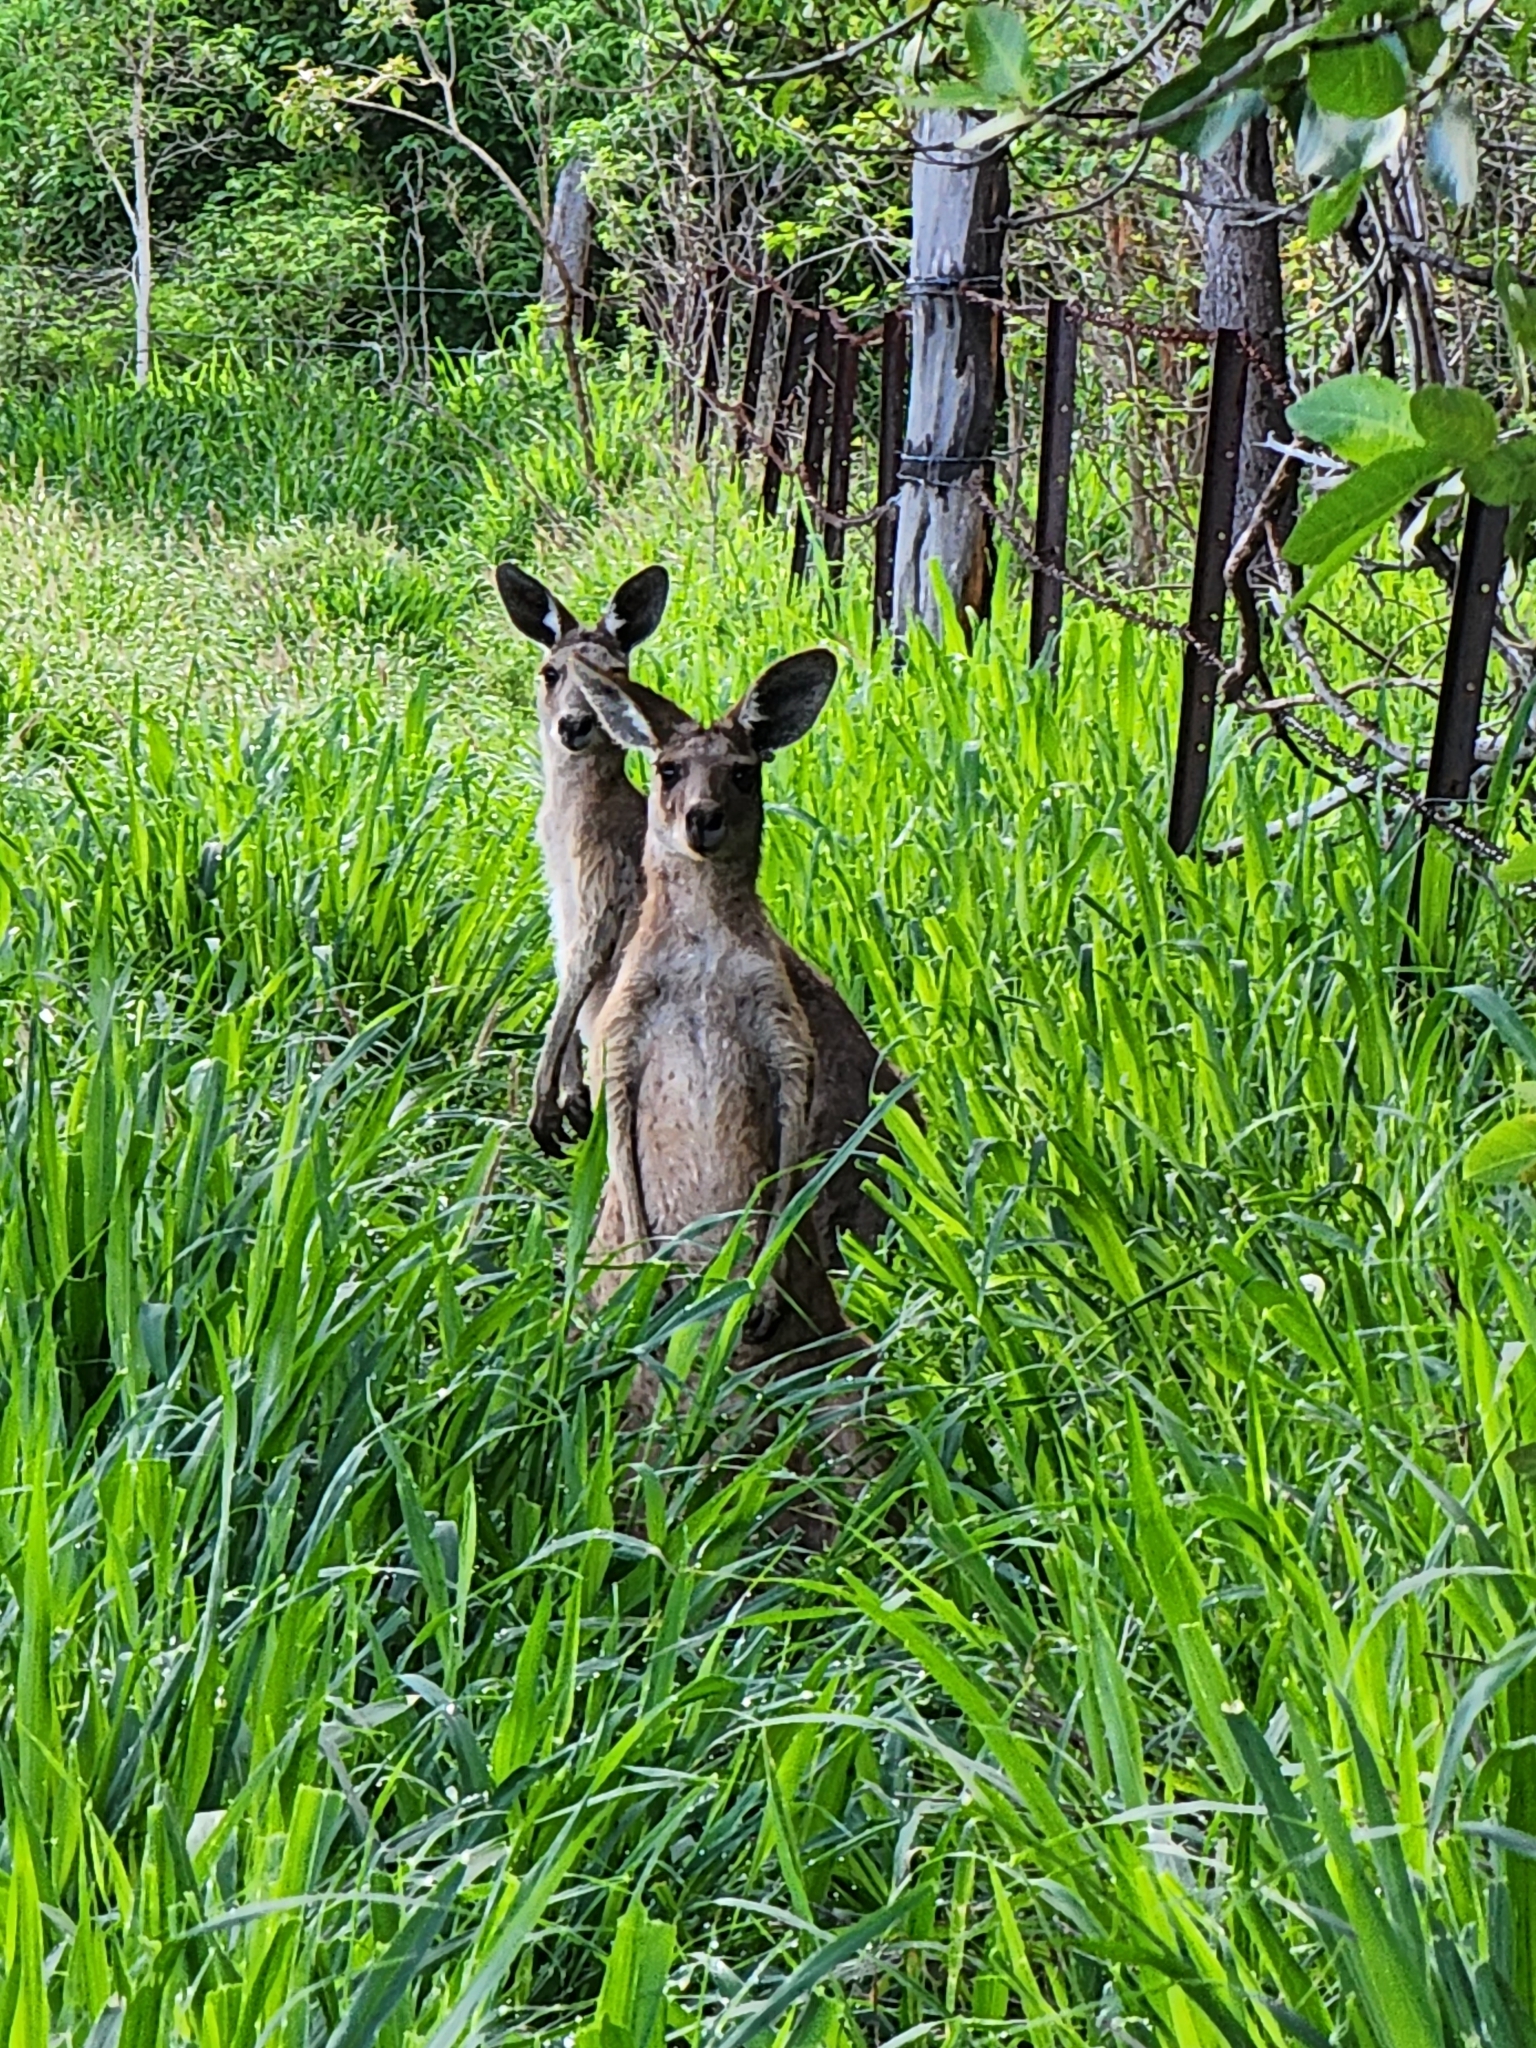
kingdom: Animalia
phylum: Chordata
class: Mammalia
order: Diprotodontia
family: Macropodidae
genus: Macropus
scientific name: Macropus giganteus
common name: Eastern grey kangaroo
